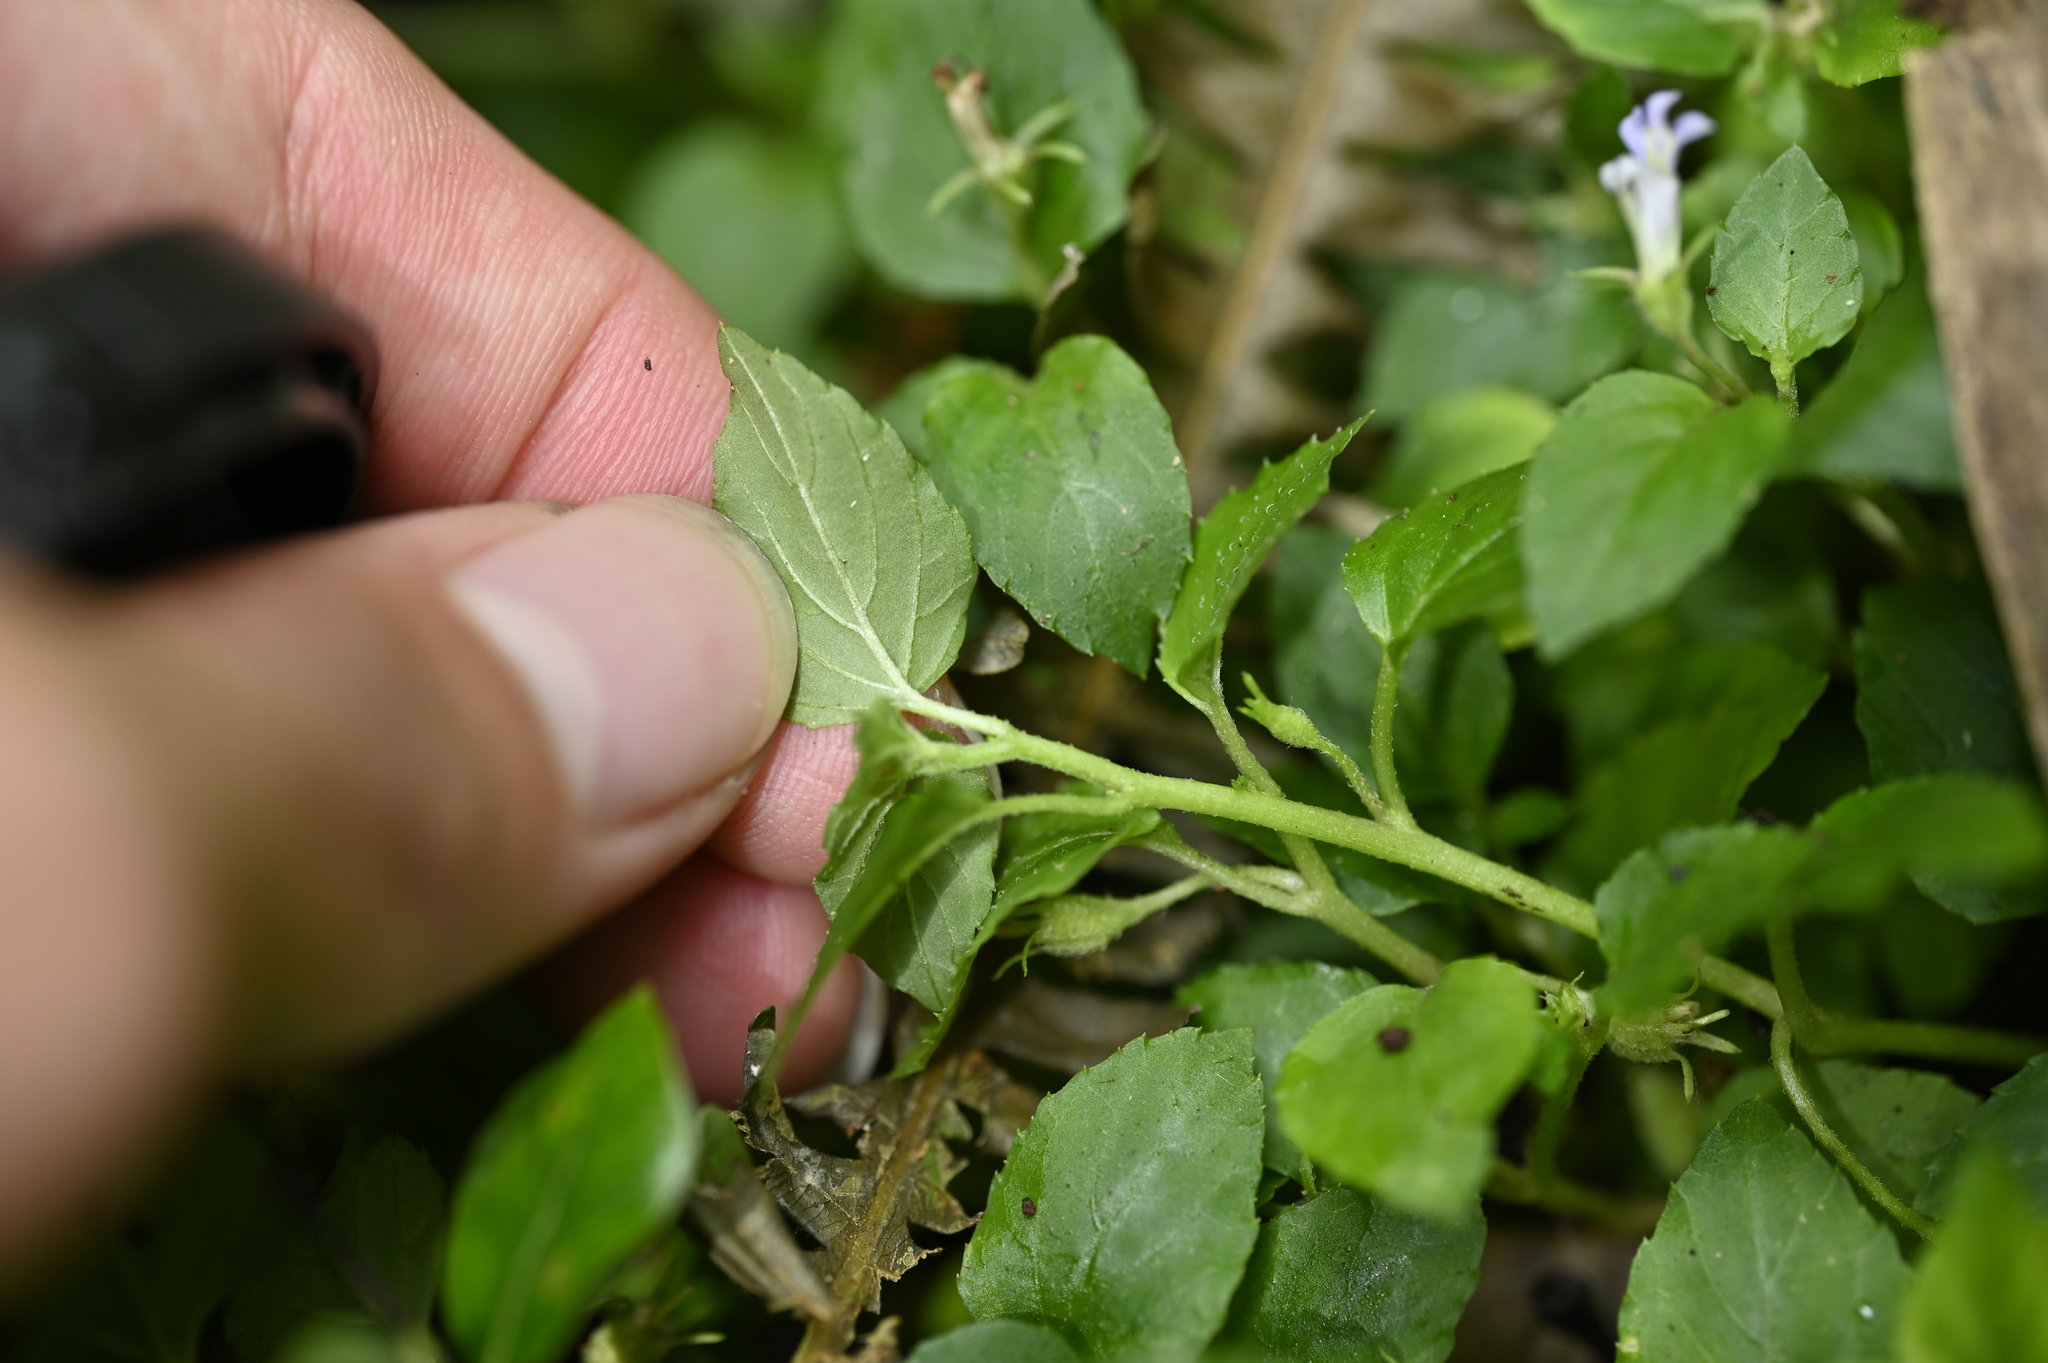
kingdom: Plantae
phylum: Tracheophyta
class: Magnoliopsida
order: Asterales
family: Campanulaceae
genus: Lobelia
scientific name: Lobelia zeylanica
